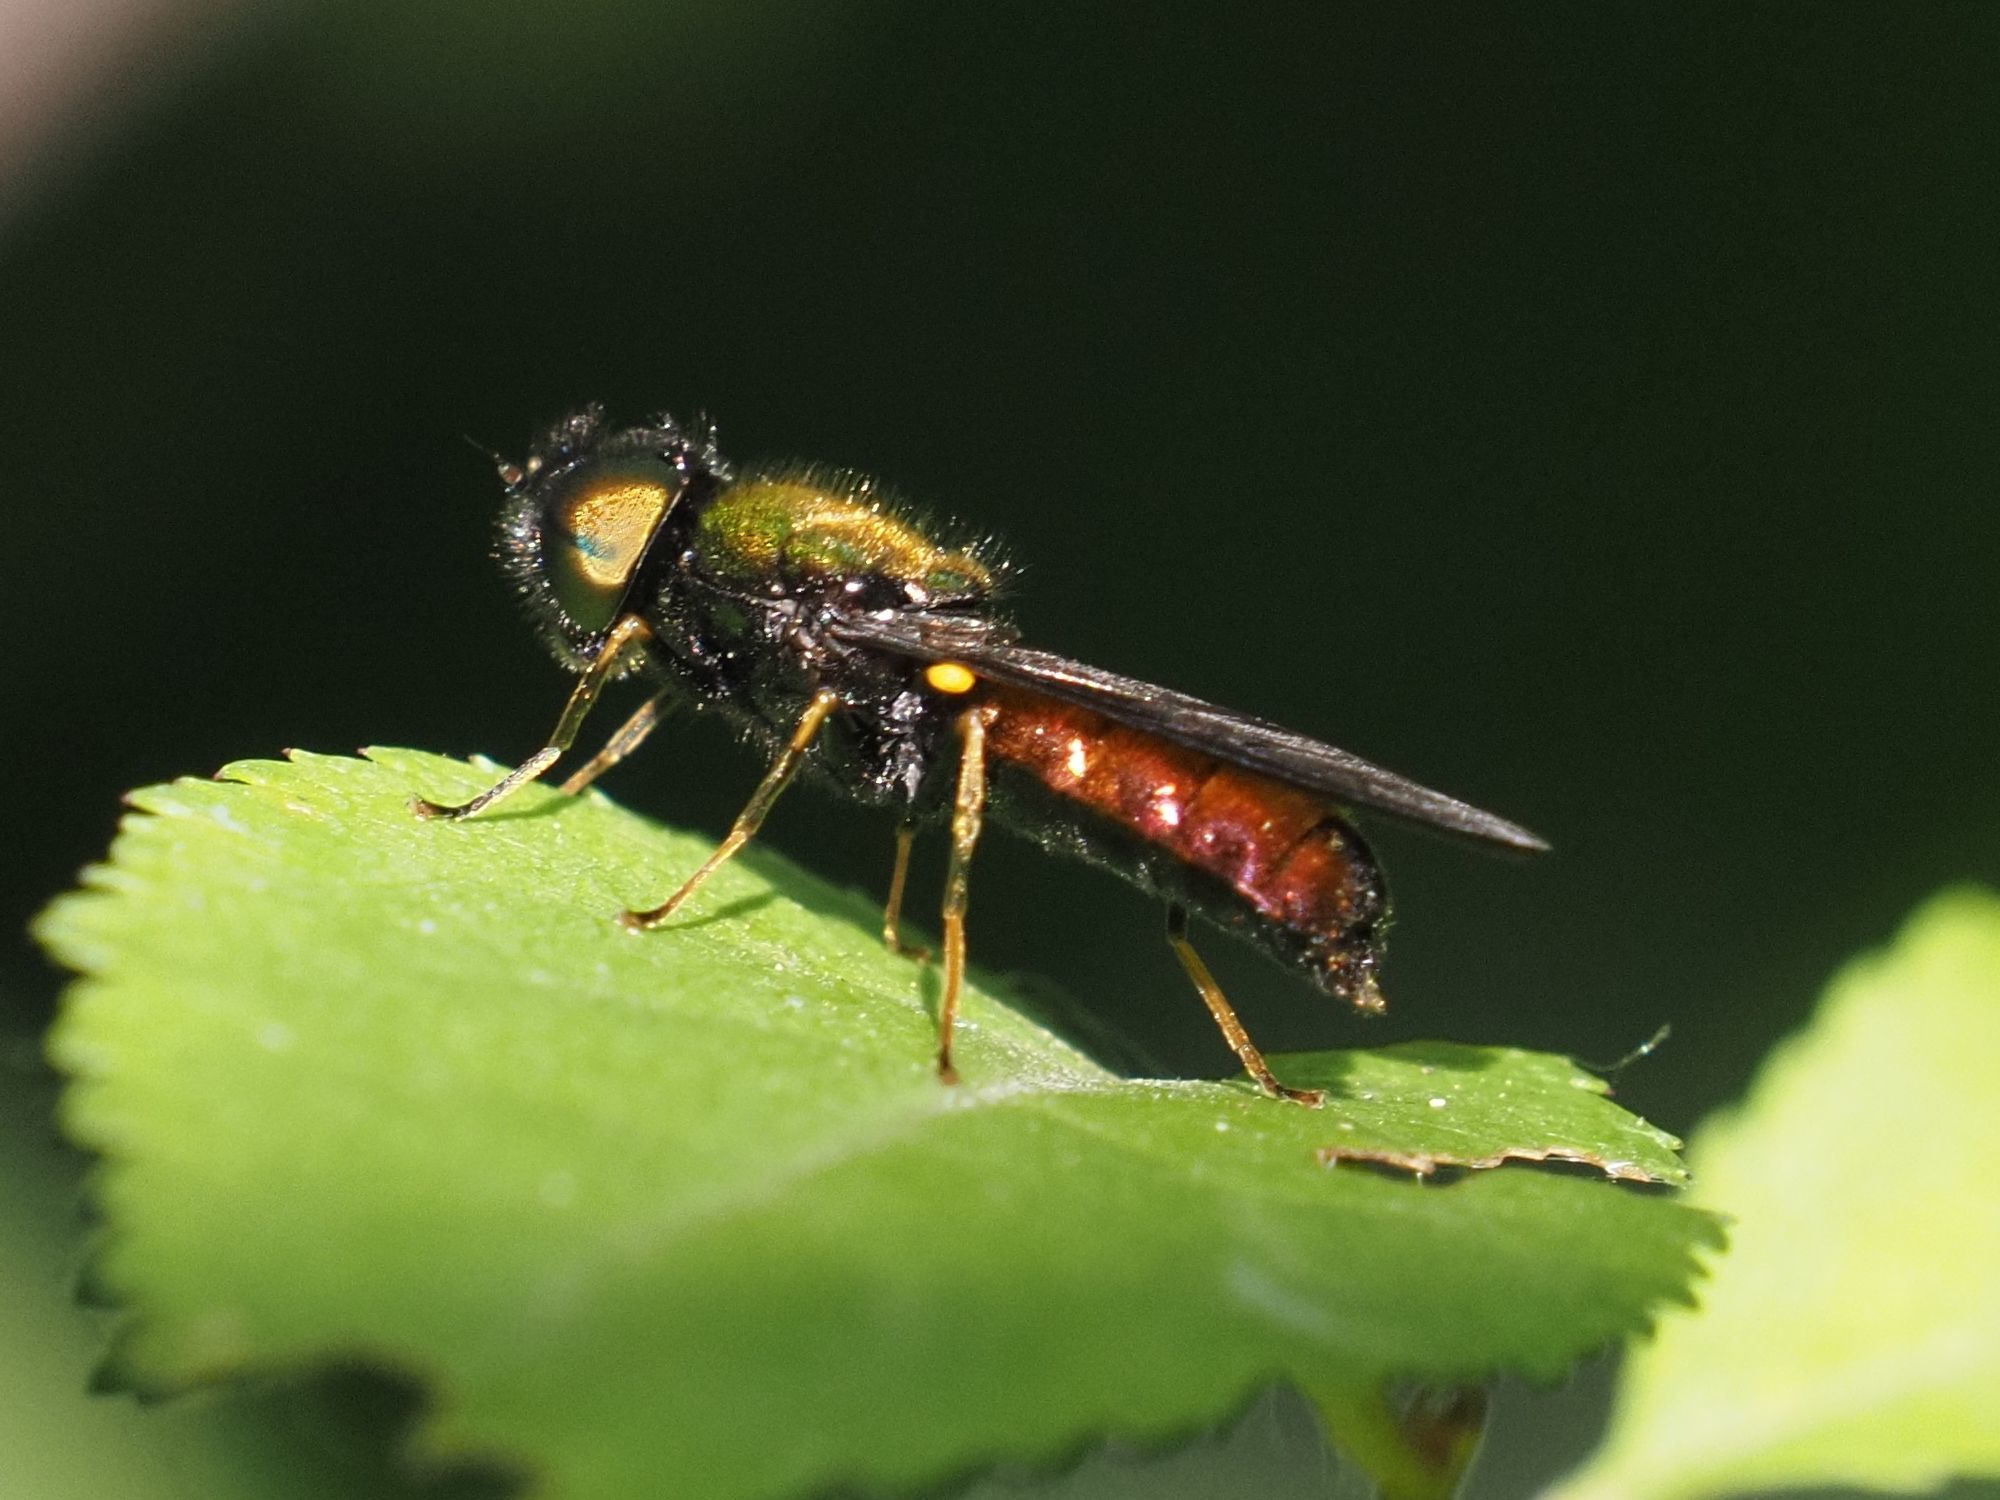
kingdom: Animalia
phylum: Arthropoda
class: Insecta
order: Diptera
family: Stratiomyidae
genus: Chloromyia
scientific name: Chloromyia speciosa
